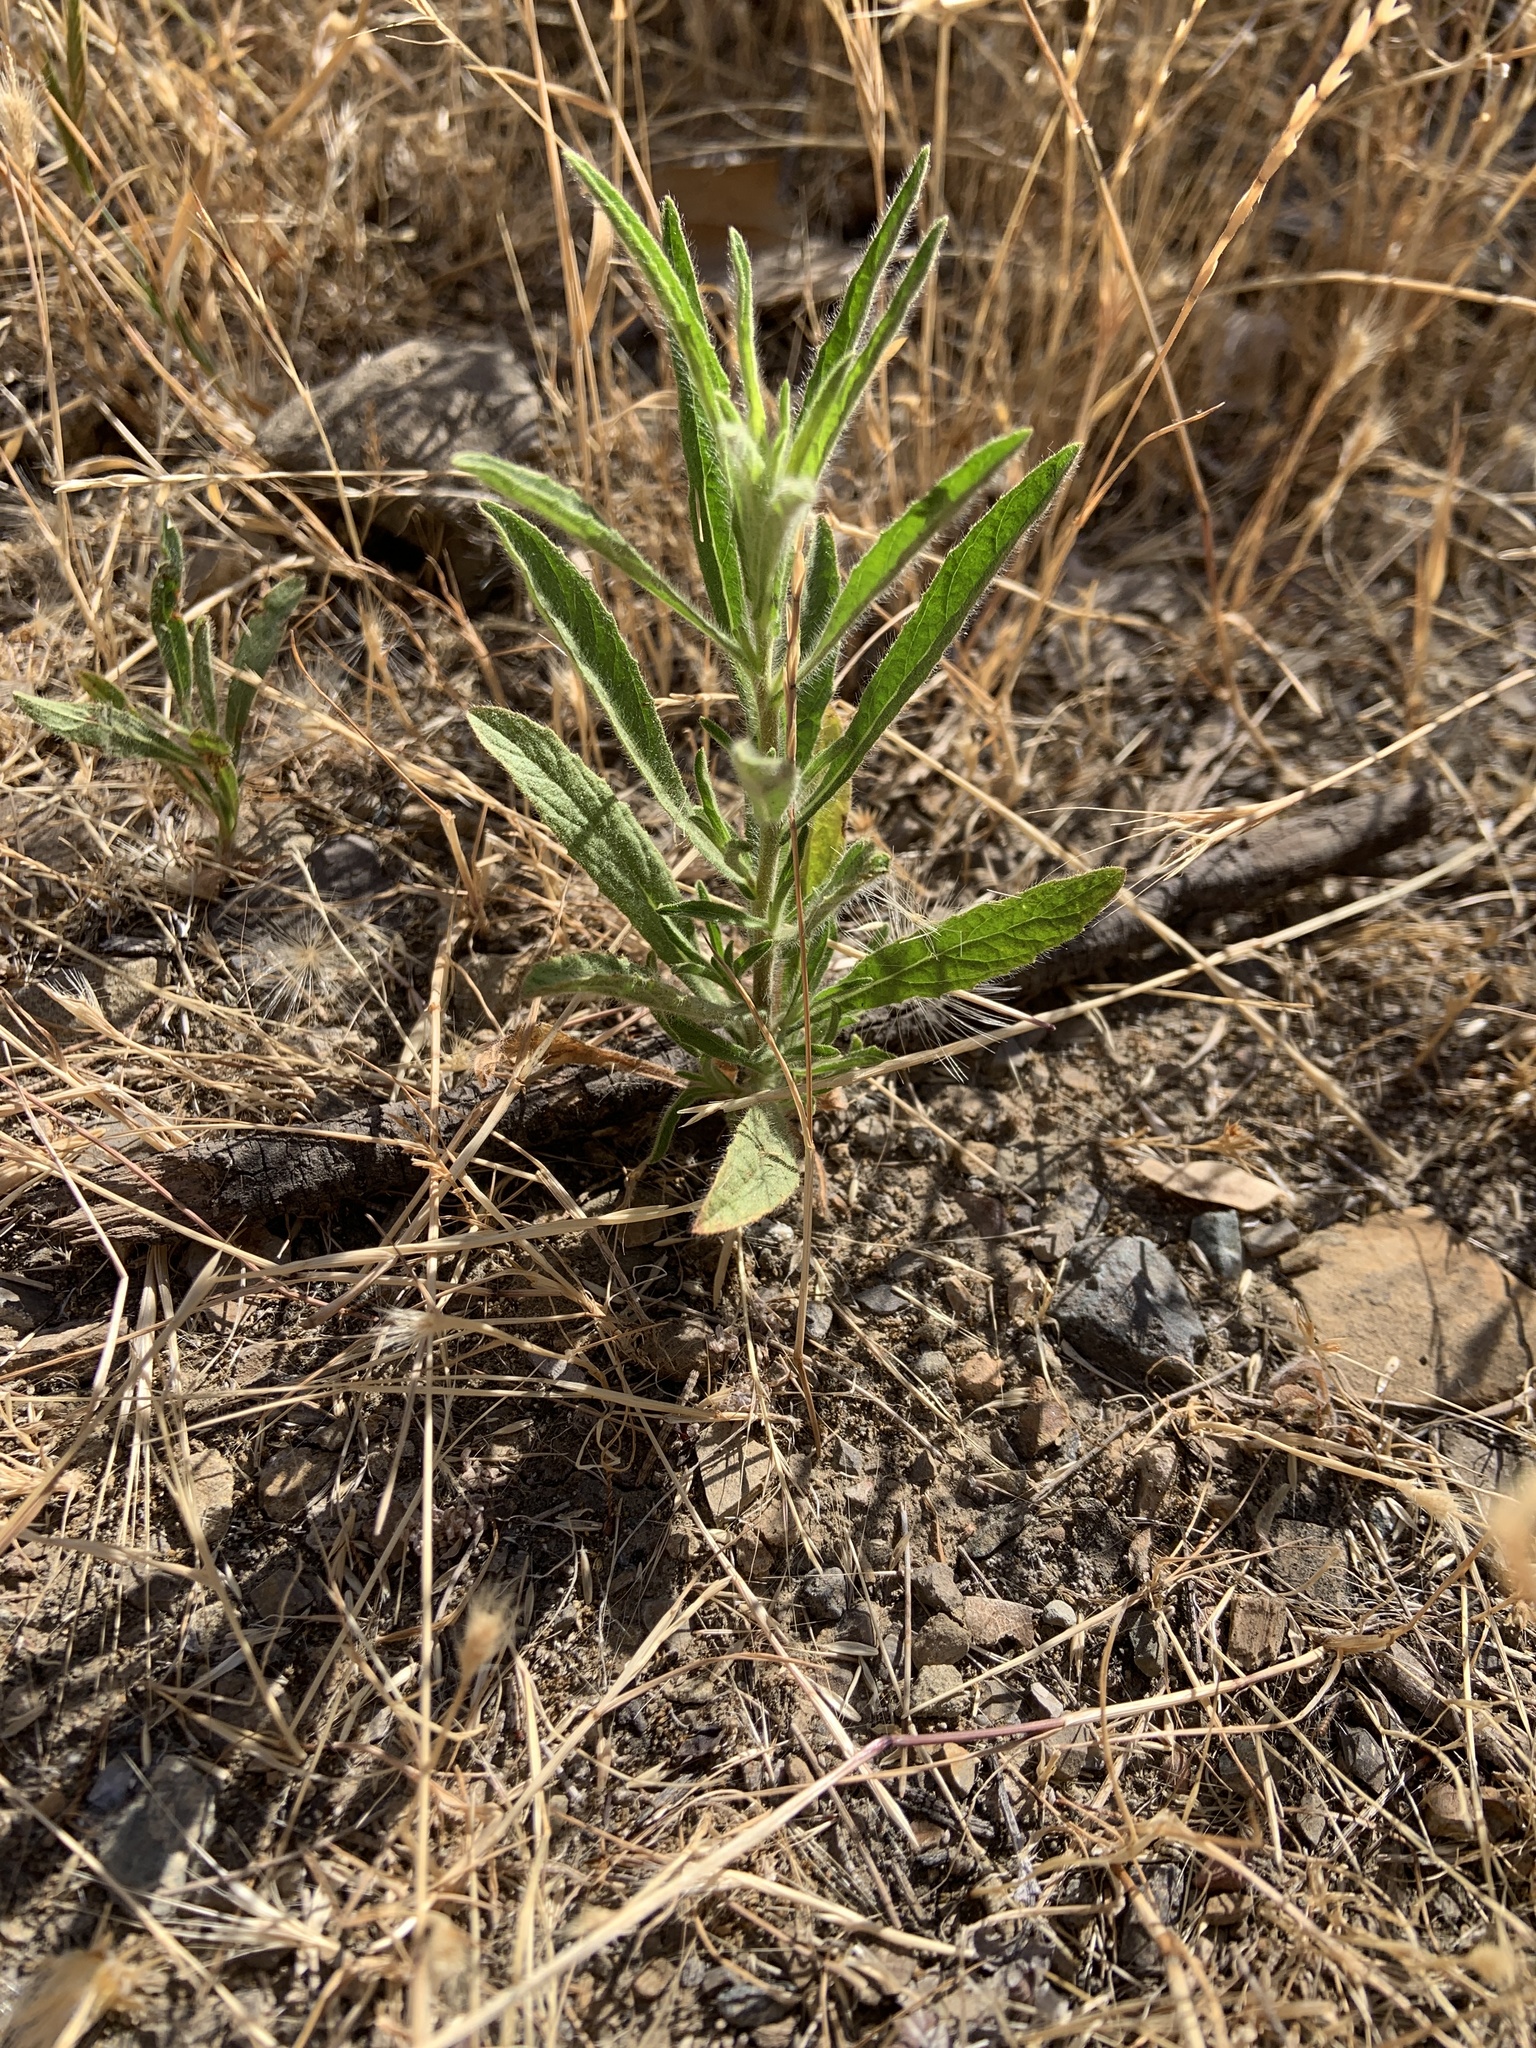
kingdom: Plantae
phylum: Tracheophyta
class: Magnoliopsida
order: Asterales
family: Asteraceae
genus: Dittrichia
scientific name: Dittrichia graveolens
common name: Stinking fleabane
